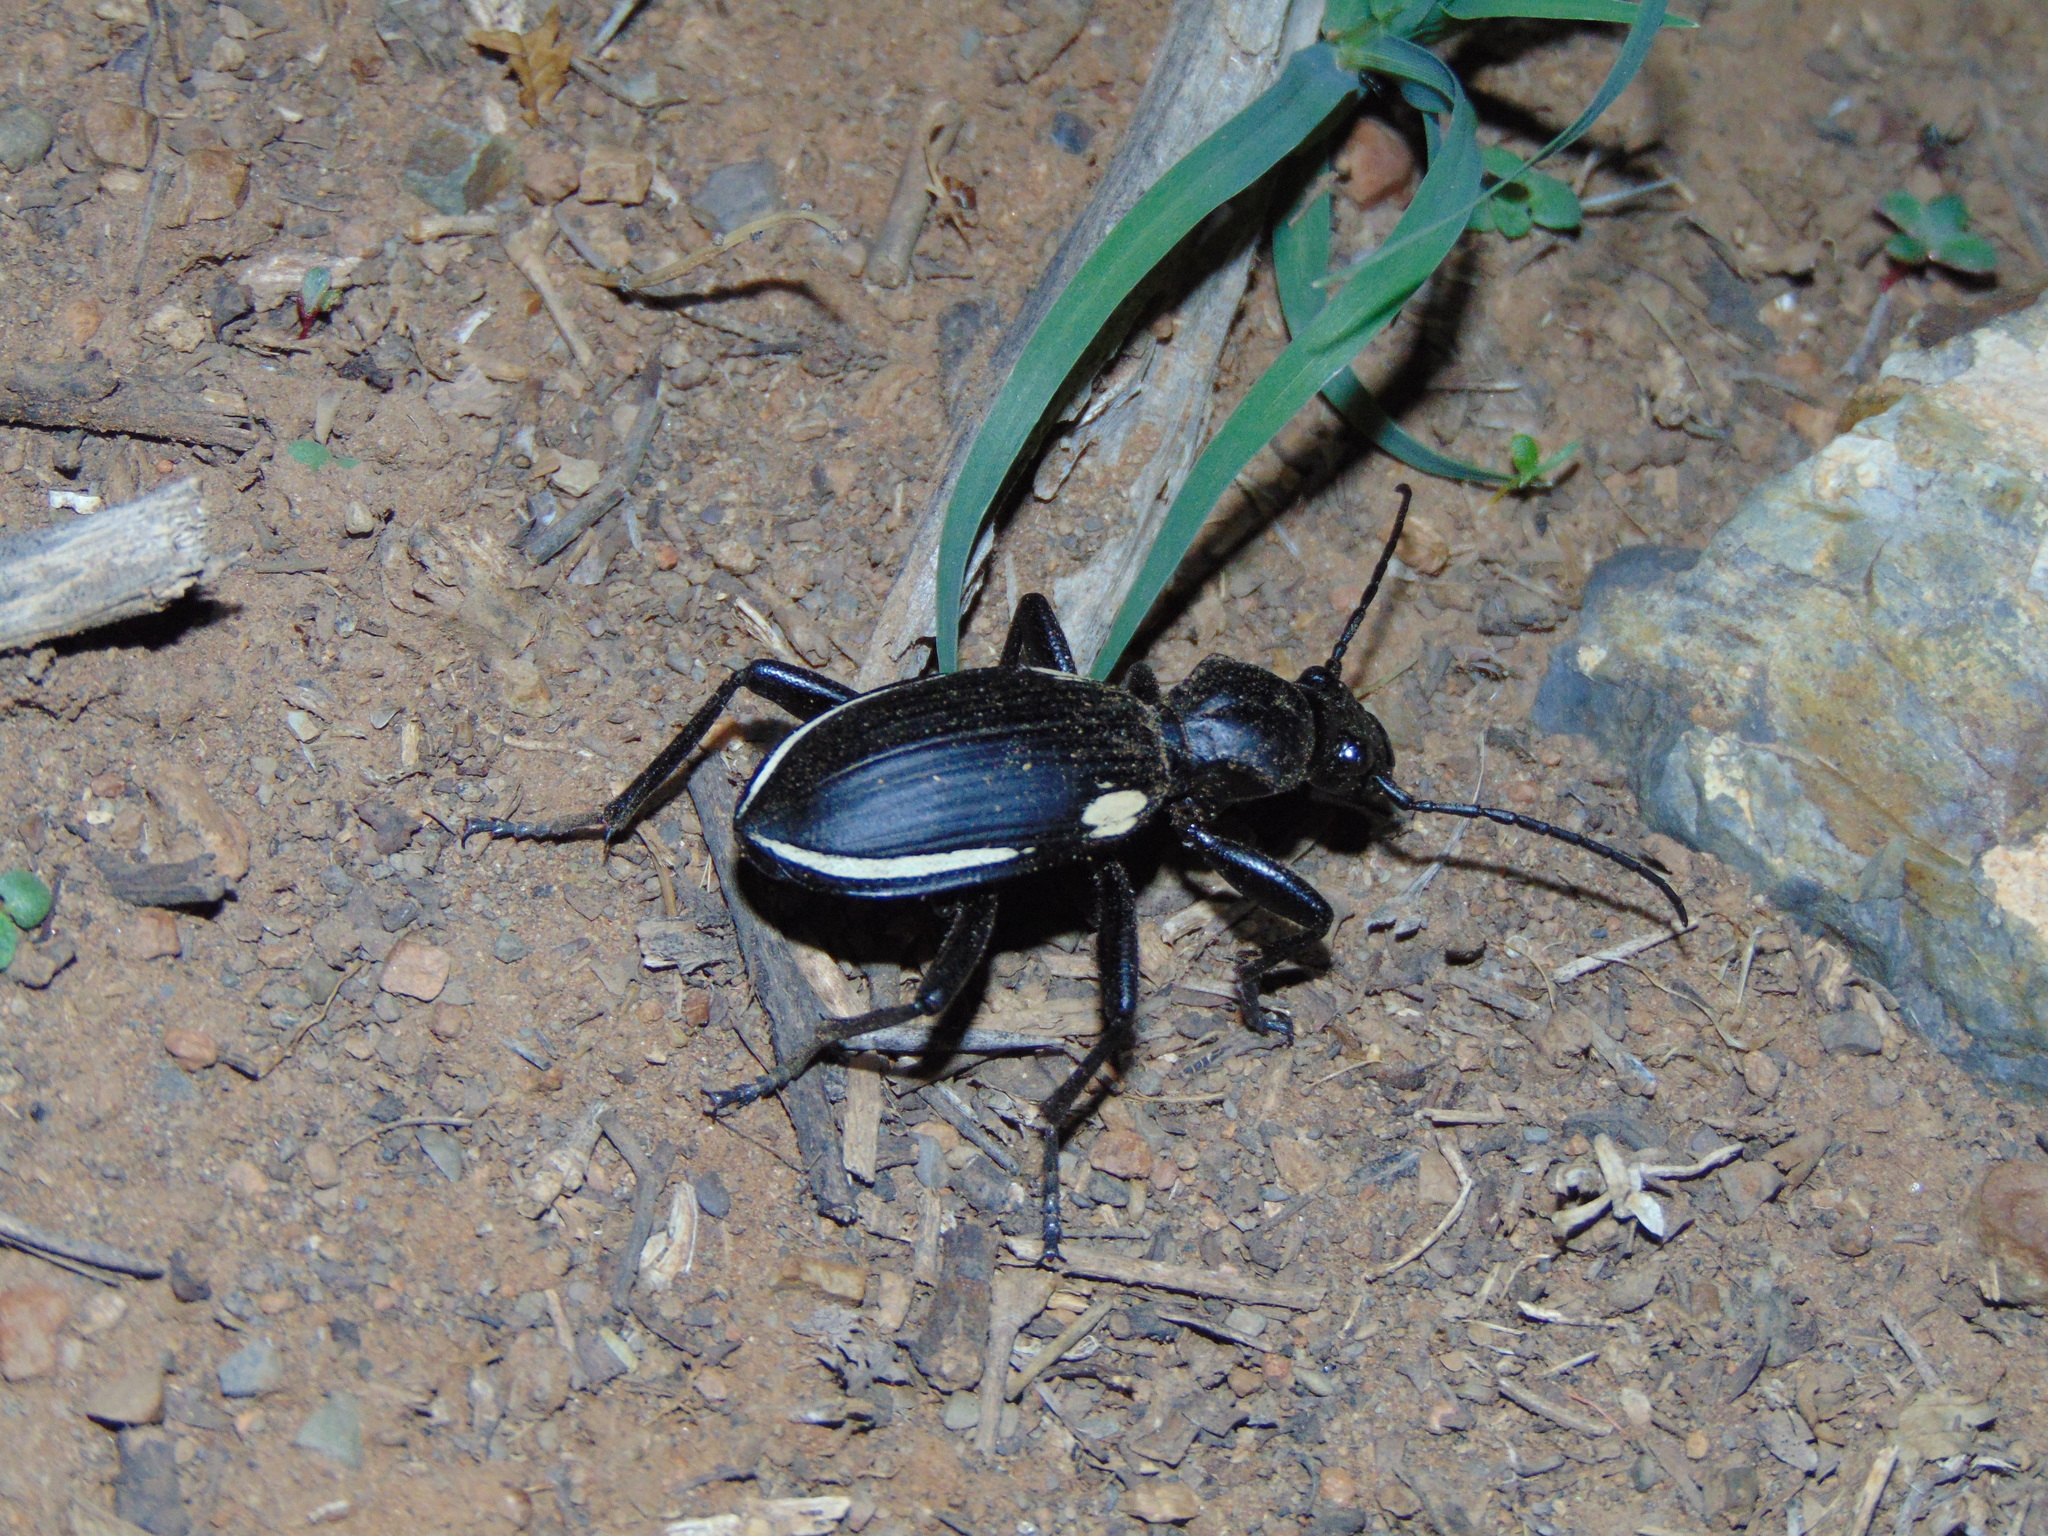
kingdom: Animalia
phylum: Arthropoda
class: Insecta
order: Coleoptera
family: Carabidae
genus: Anthia
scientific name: Anthia
